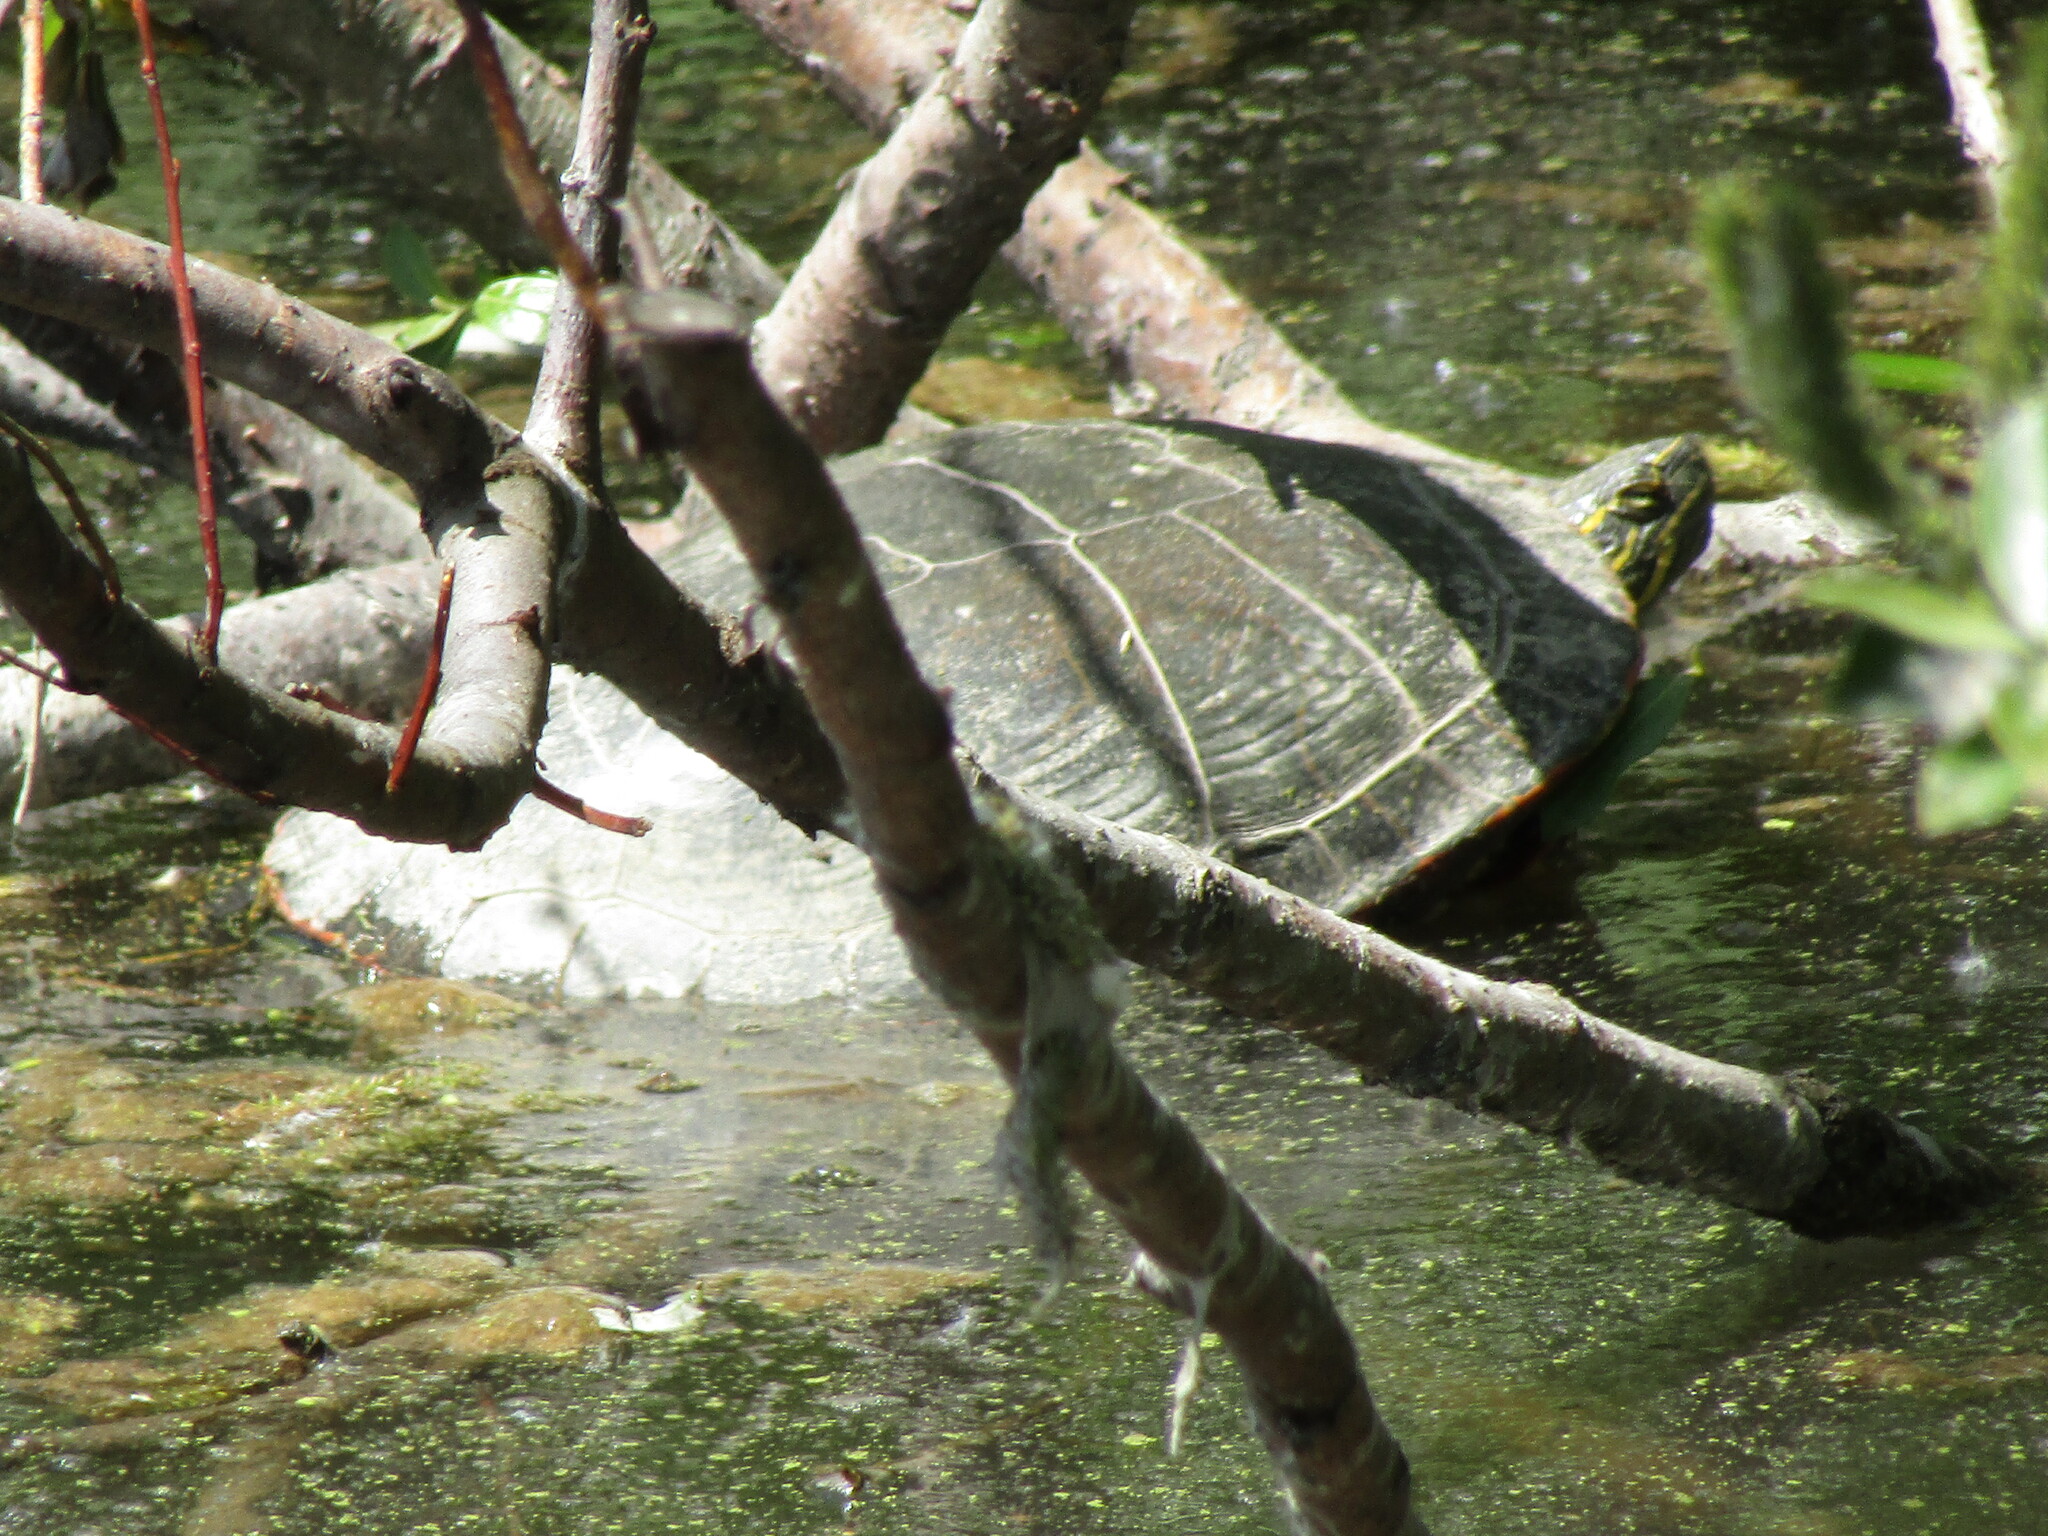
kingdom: Animalia
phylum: Chordata
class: Testudines
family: Emydidae
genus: Chrysemys
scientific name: Chrysemys picta
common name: Painted turtle
